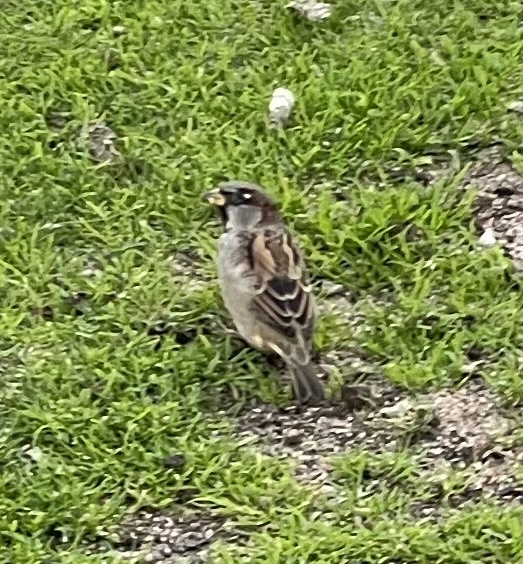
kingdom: Animalia
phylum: Chordata
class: Aves
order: Passeriformes
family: Passeridae
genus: Passer
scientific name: Passer domesticus
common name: House sparrow
